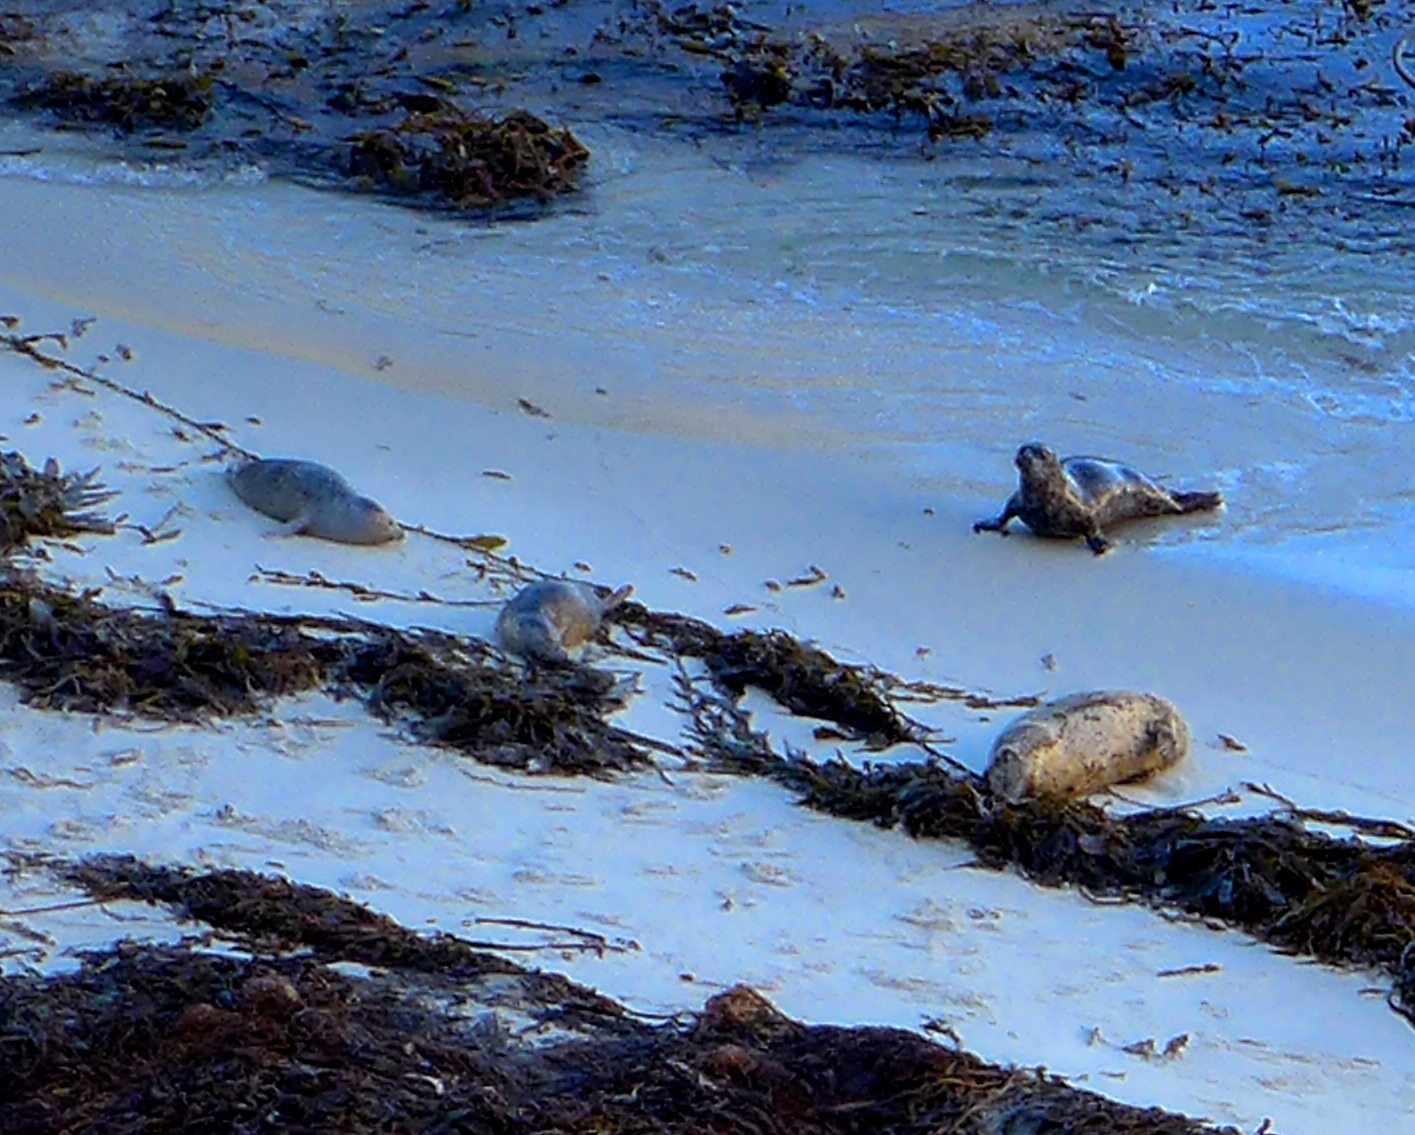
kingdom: Animalia
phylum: Chordata
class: Mammalia
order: Carnivora
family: Phocidae
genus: Phoca
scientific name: Phoca vitulina
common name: Harbor seal
